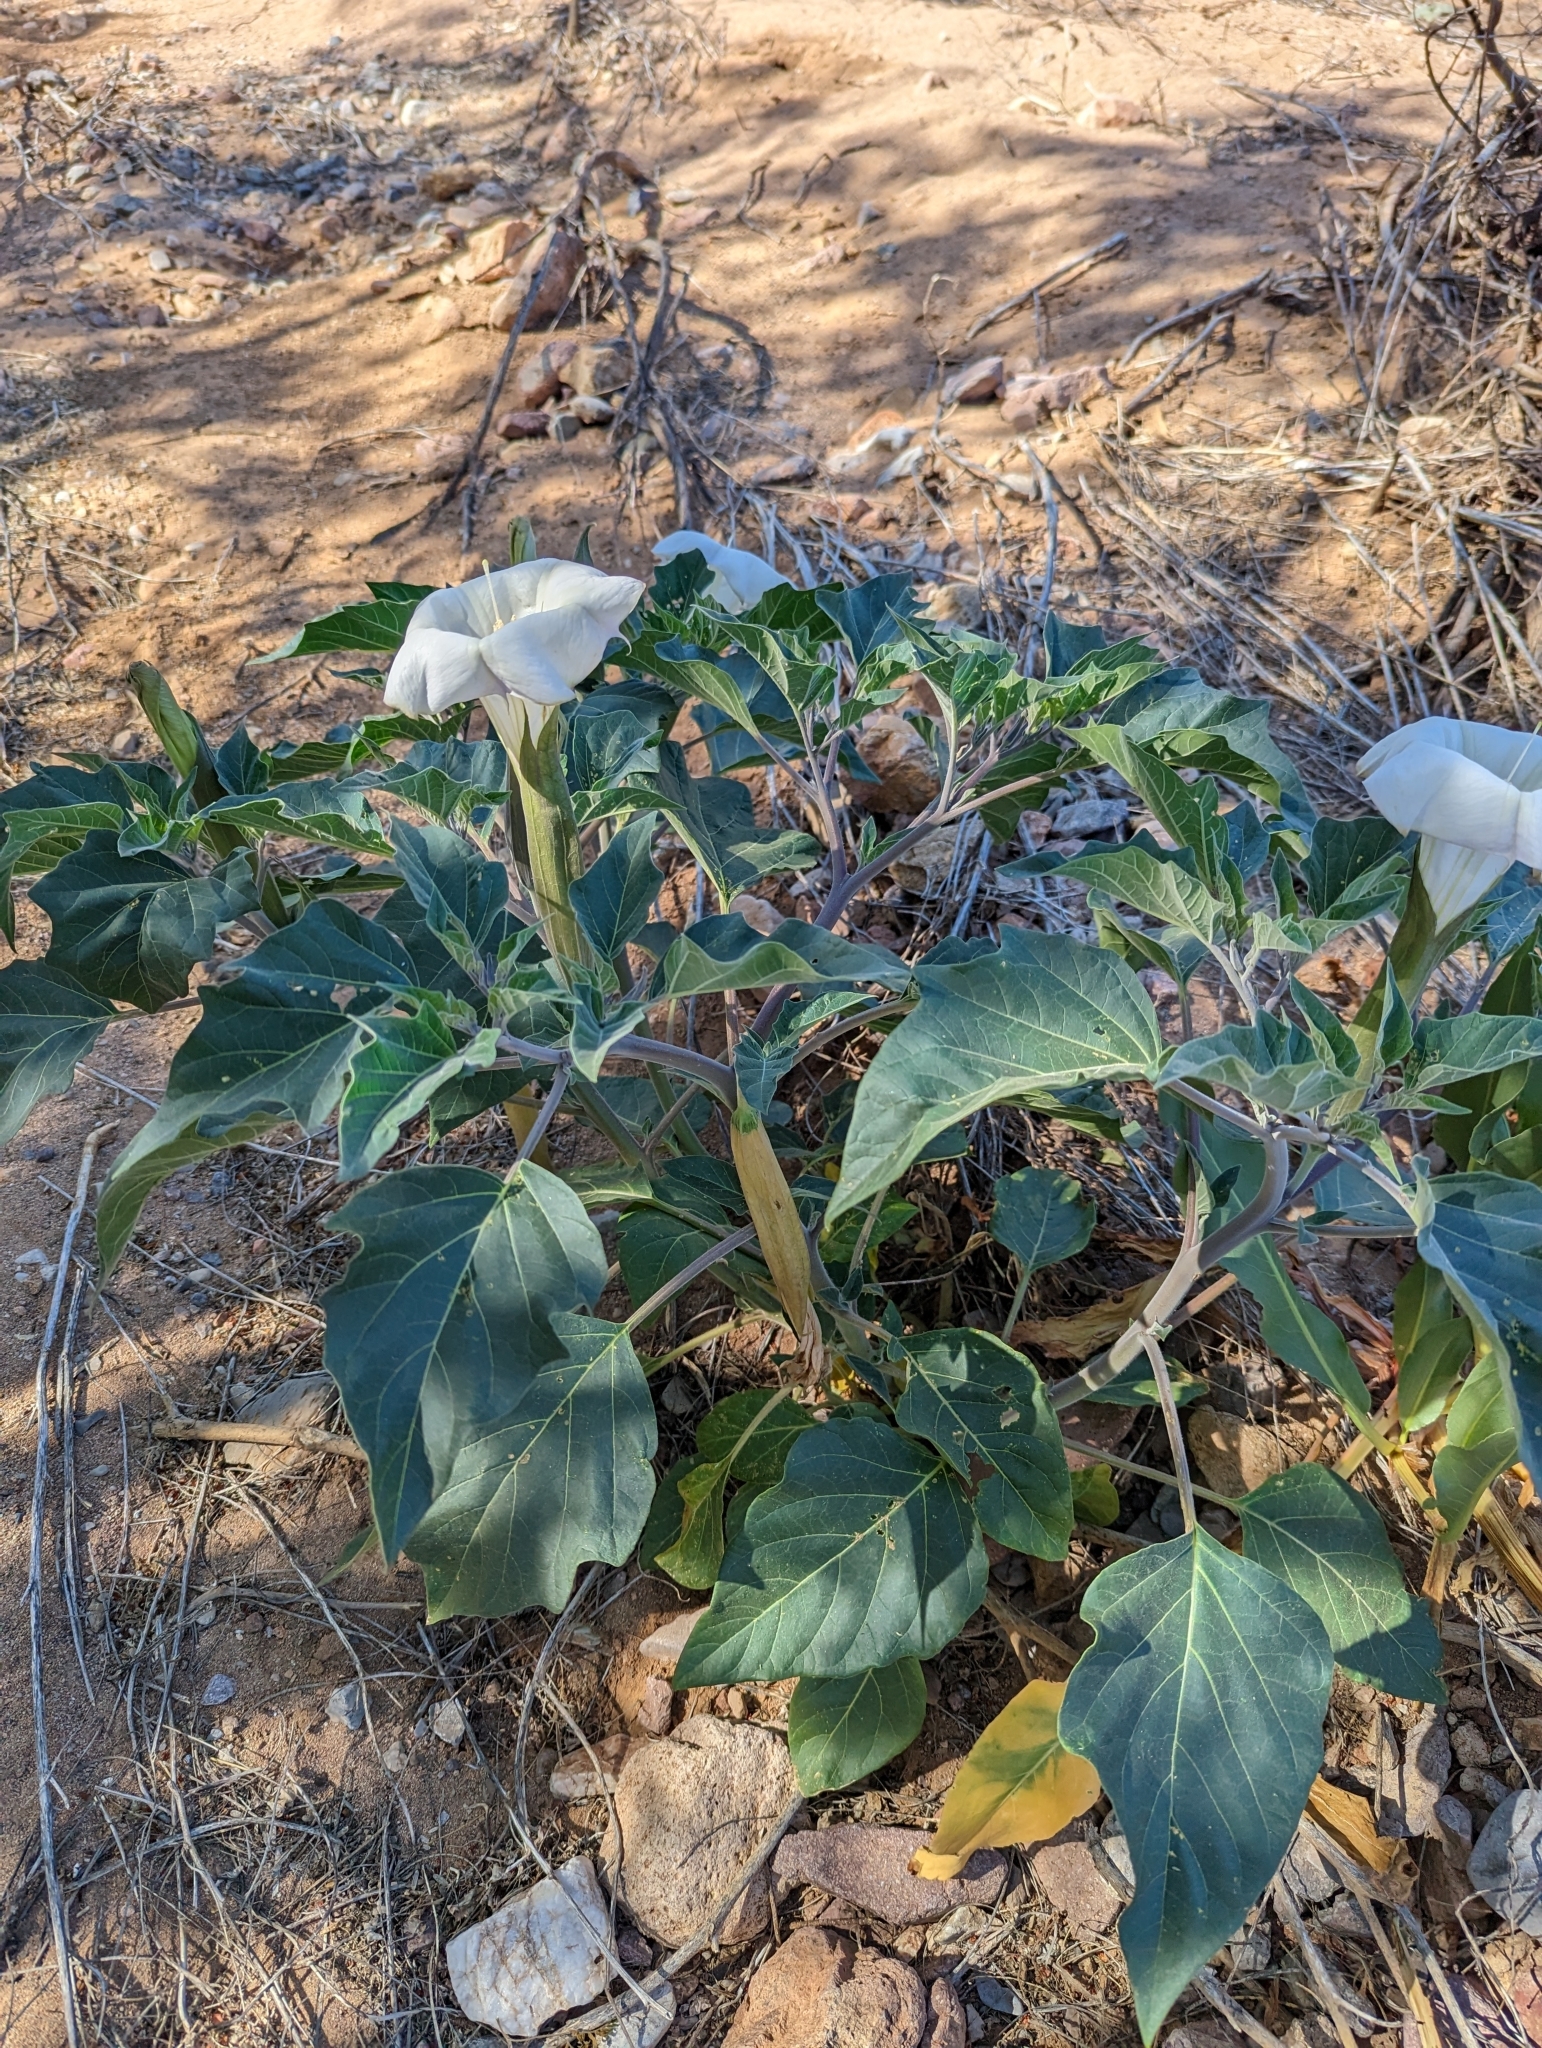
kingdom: Plantae
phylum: Tracheophyta
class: Magnoliopsida
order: Solanales
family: Solanaceae
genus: Datura
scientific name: Datura wrightii
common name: Sacred thorn-apple
